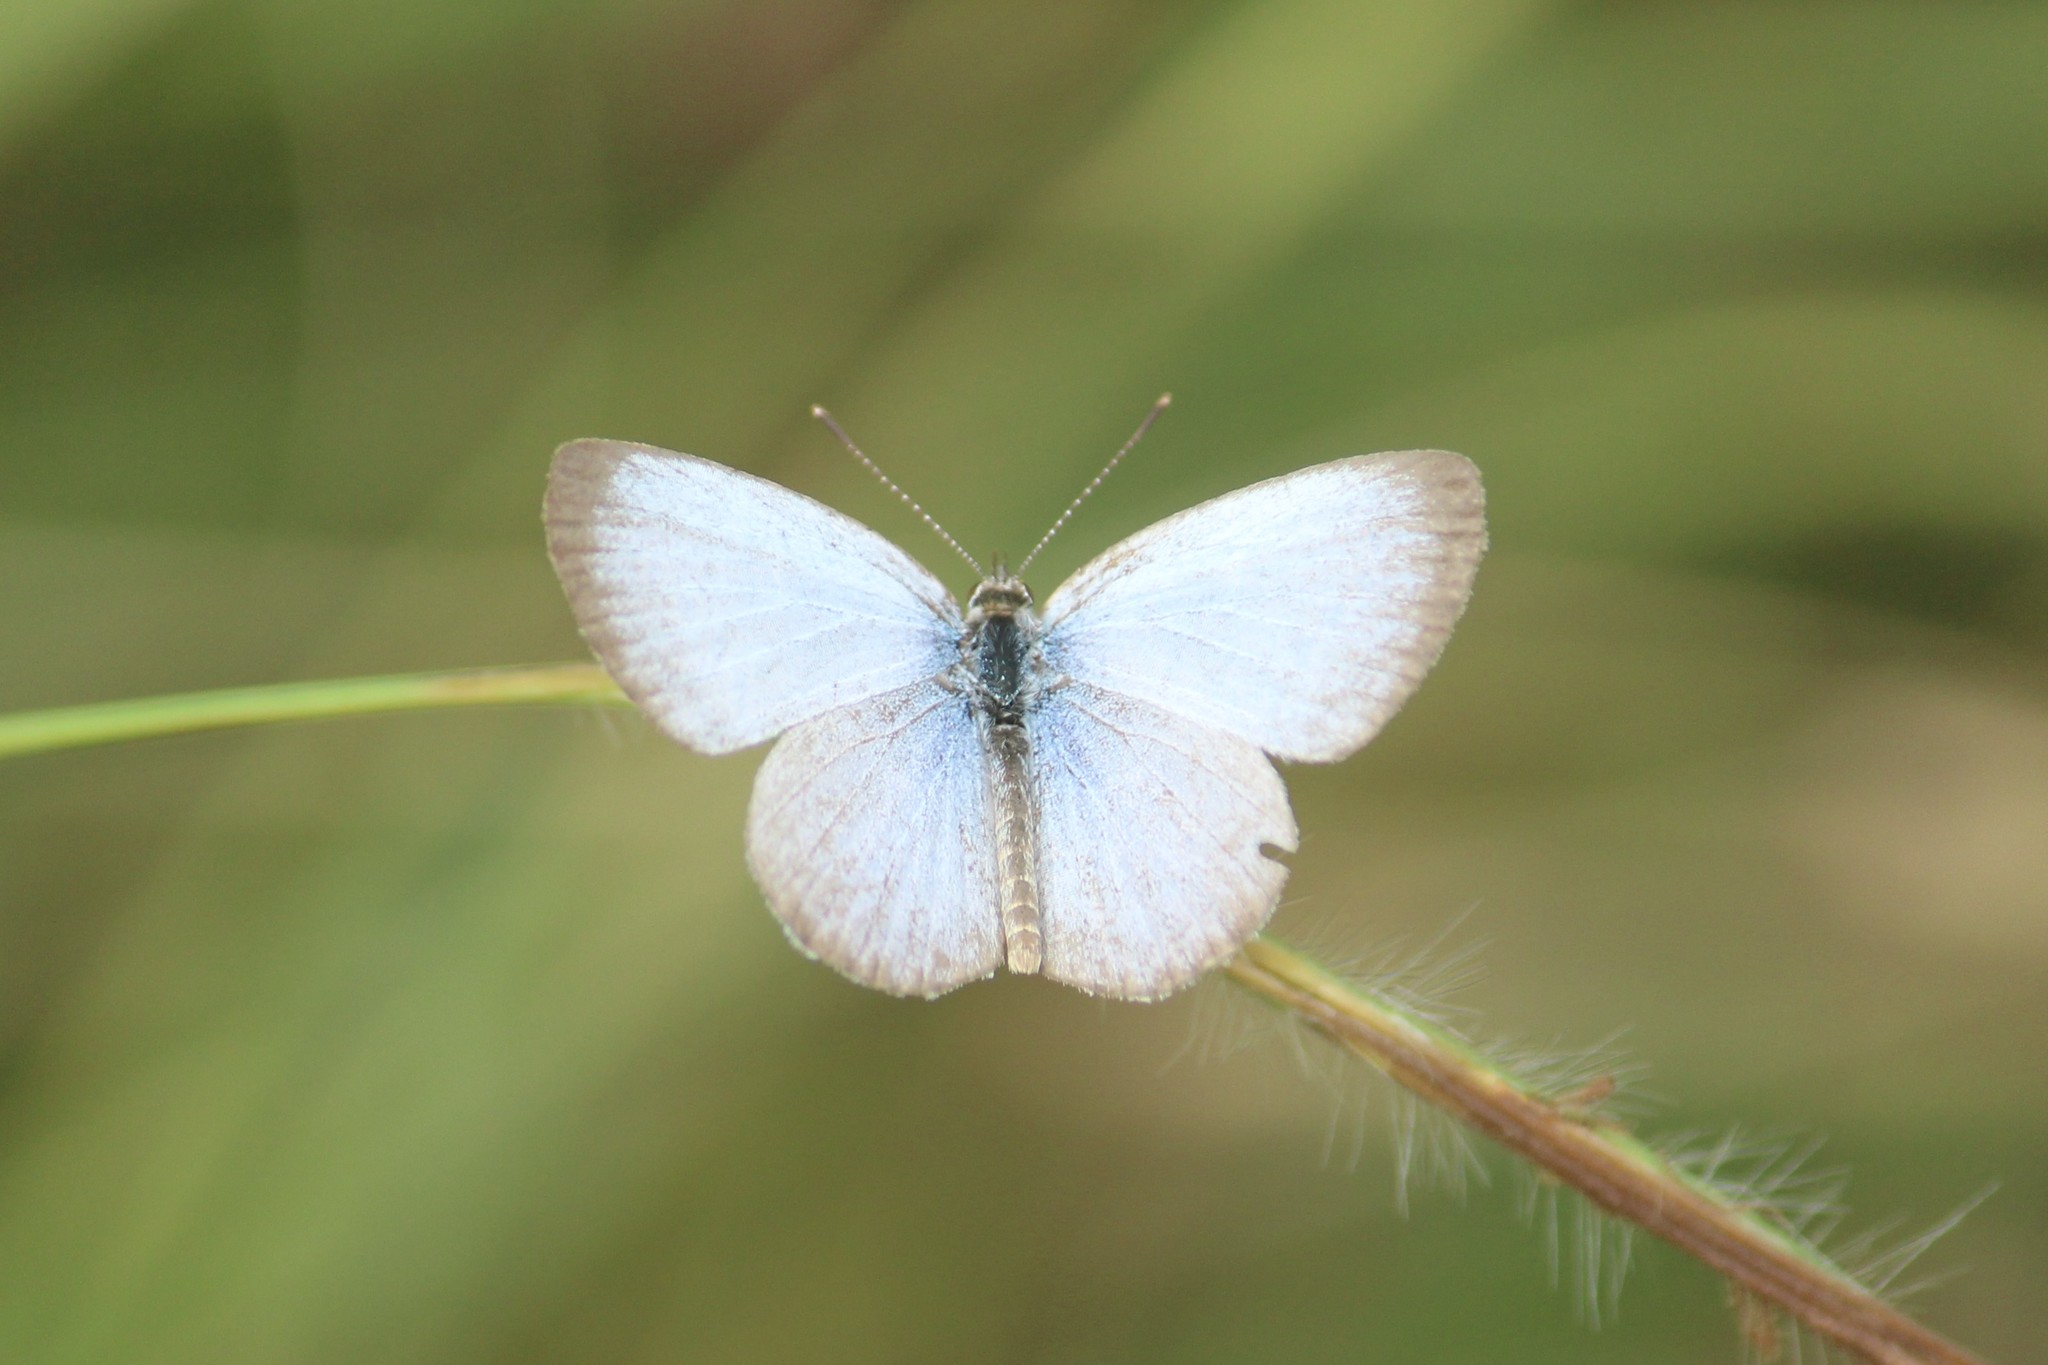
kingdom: Animalia
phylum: Arthropoda
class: Insecta
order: Lepidoptera
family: Lycaenidae
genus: Pseudozizeeria
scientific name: Pseudozizeeria maha
